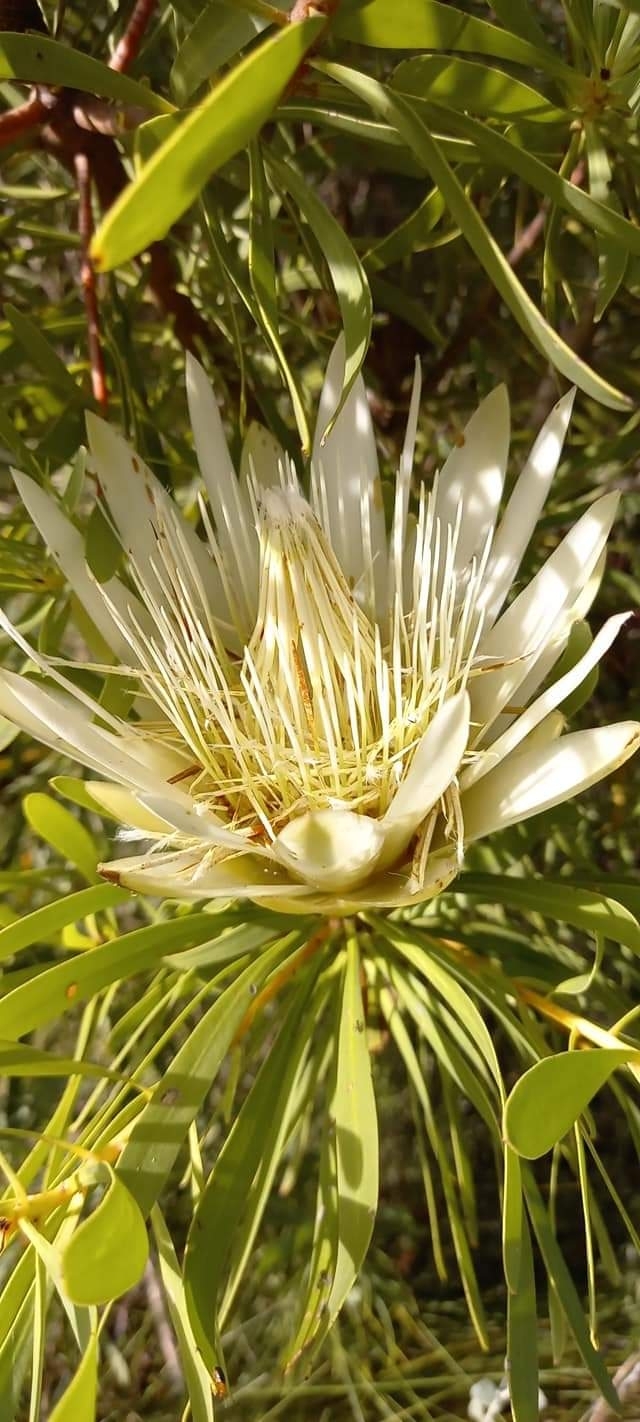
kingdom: Plantae
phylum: Tracheophyta
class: Magnoliopsida
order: Proteales
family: Proteaceae
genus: Protea
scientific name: Protea repens
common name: Sugarbush
